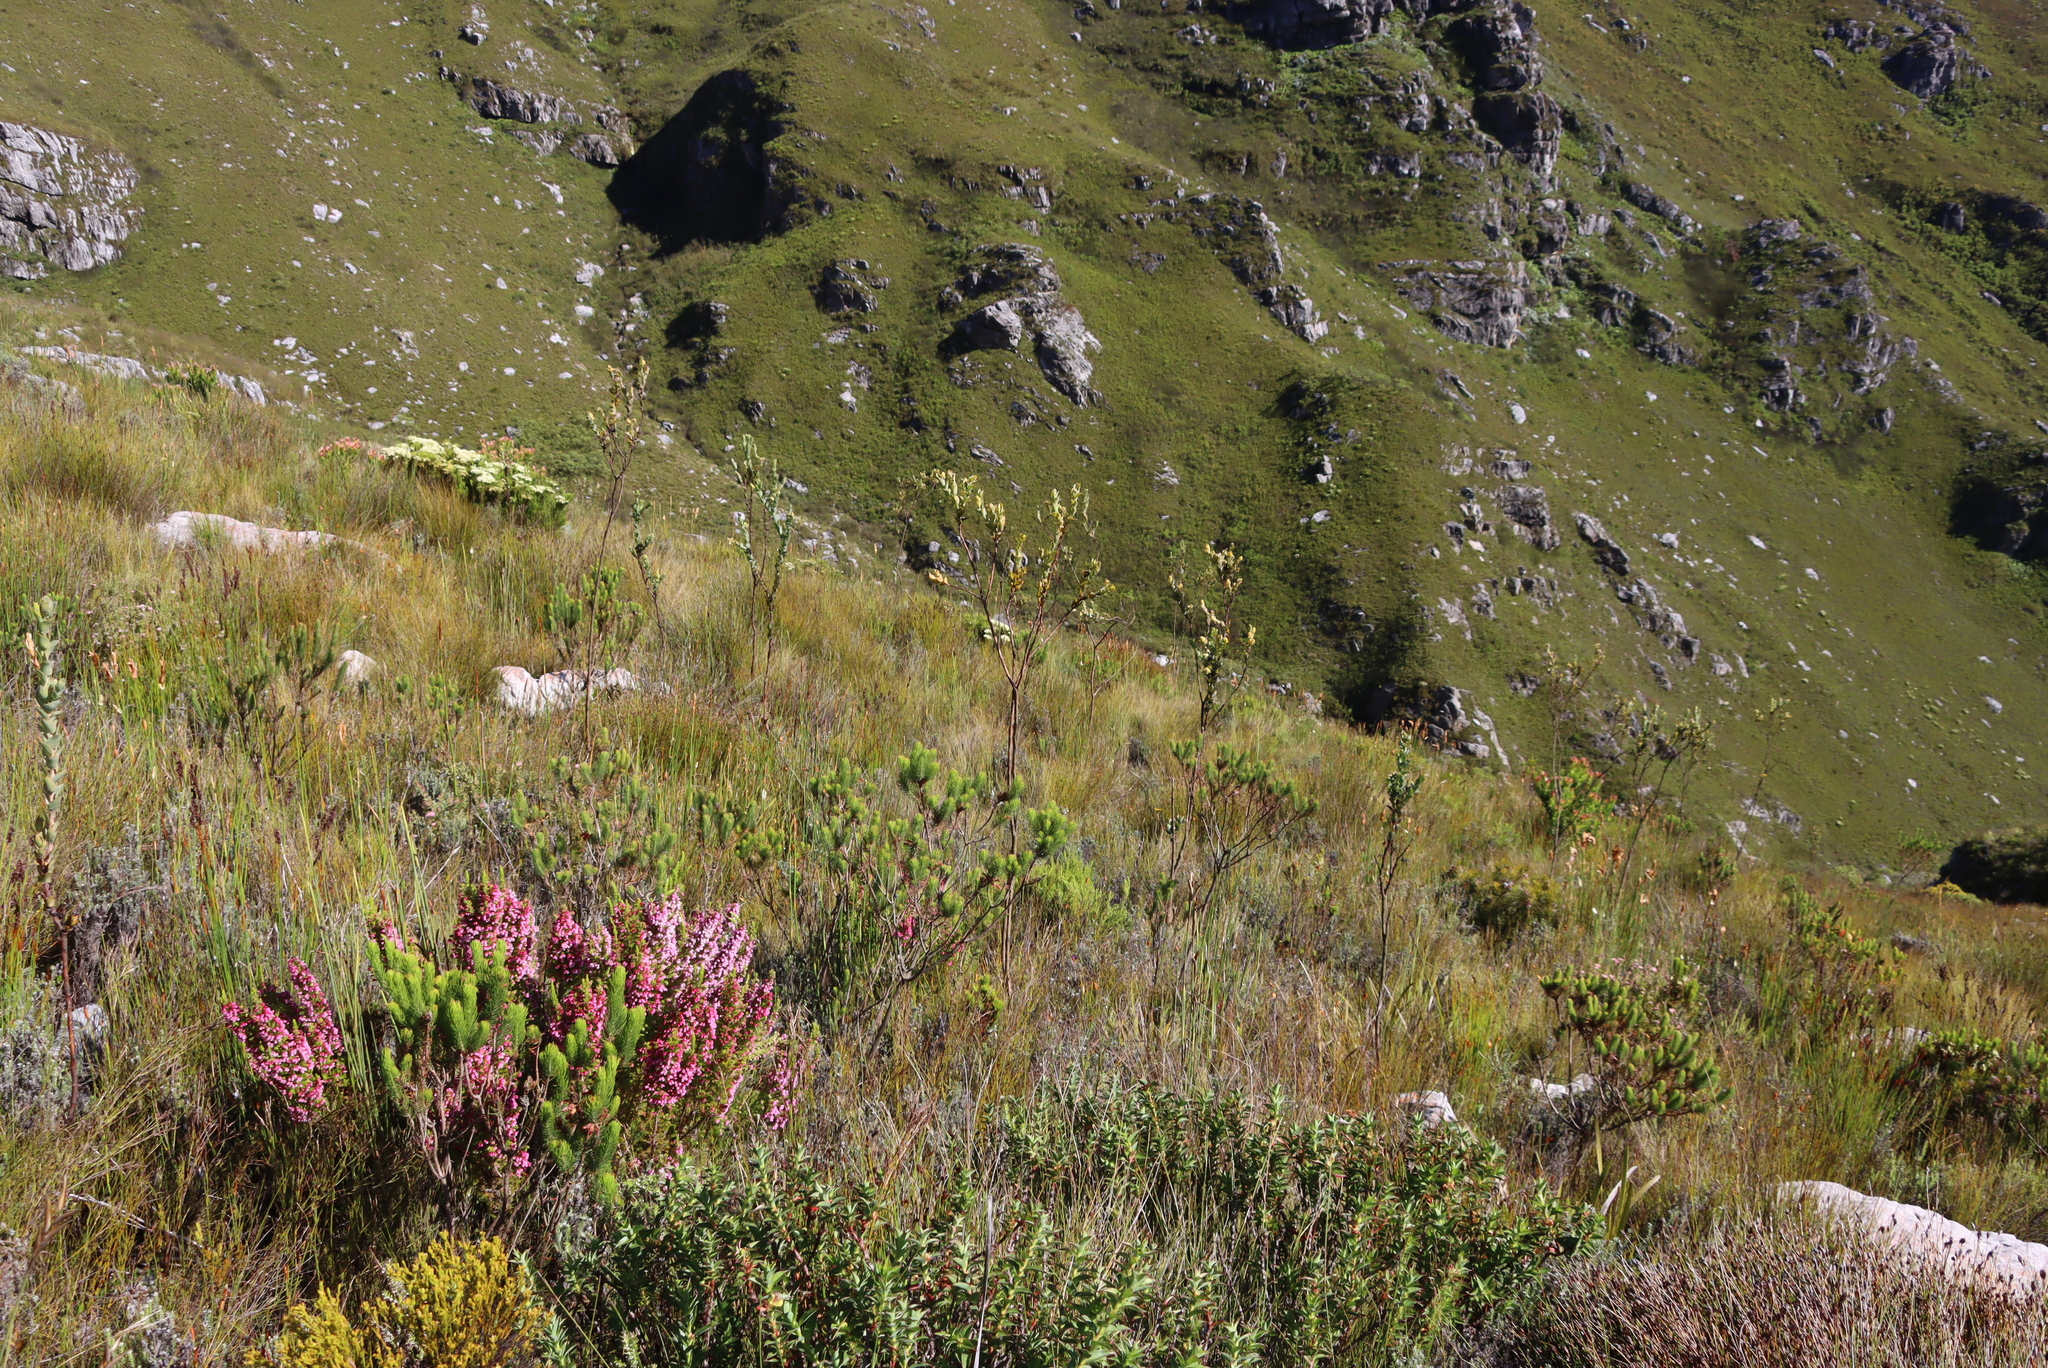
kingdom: Plantae
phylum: Tracheophyta
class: Magnoliopsida
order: Santalales
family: Thesiaceae
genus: Thesium
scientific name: Thesium euphorbioides
